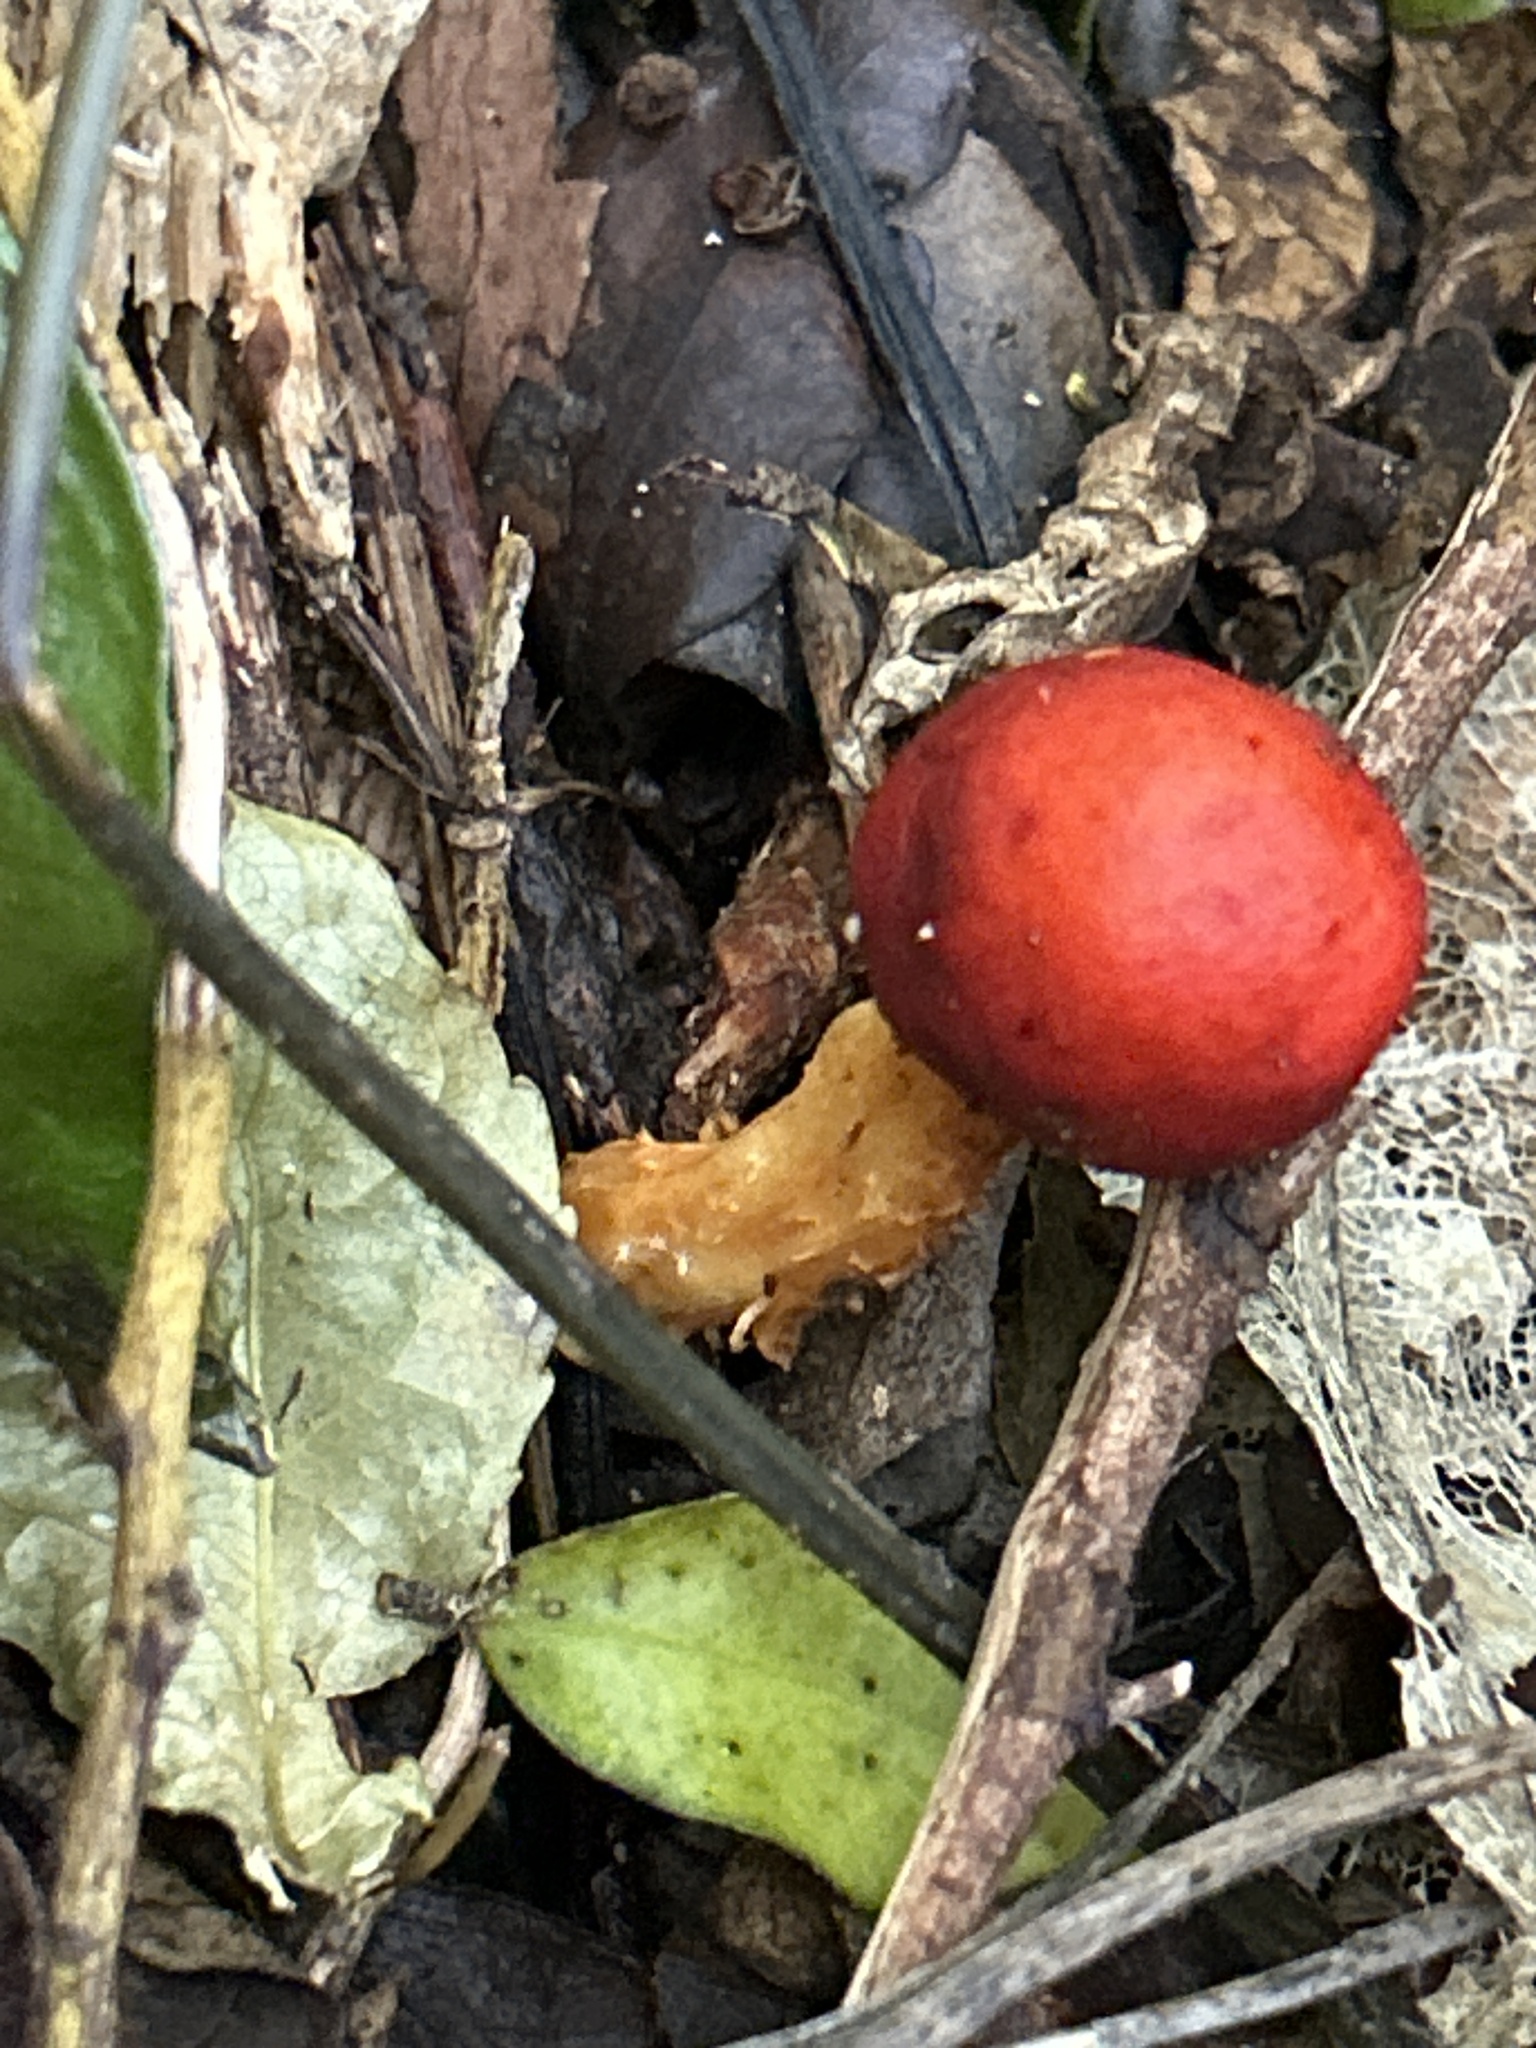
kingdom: Fungi
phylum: Basidiomycota
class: Agaricomycetes
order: Agaricales
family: Strophariaceae
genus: Leratiomyces
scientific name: Leratiomyces erythrocephalus
